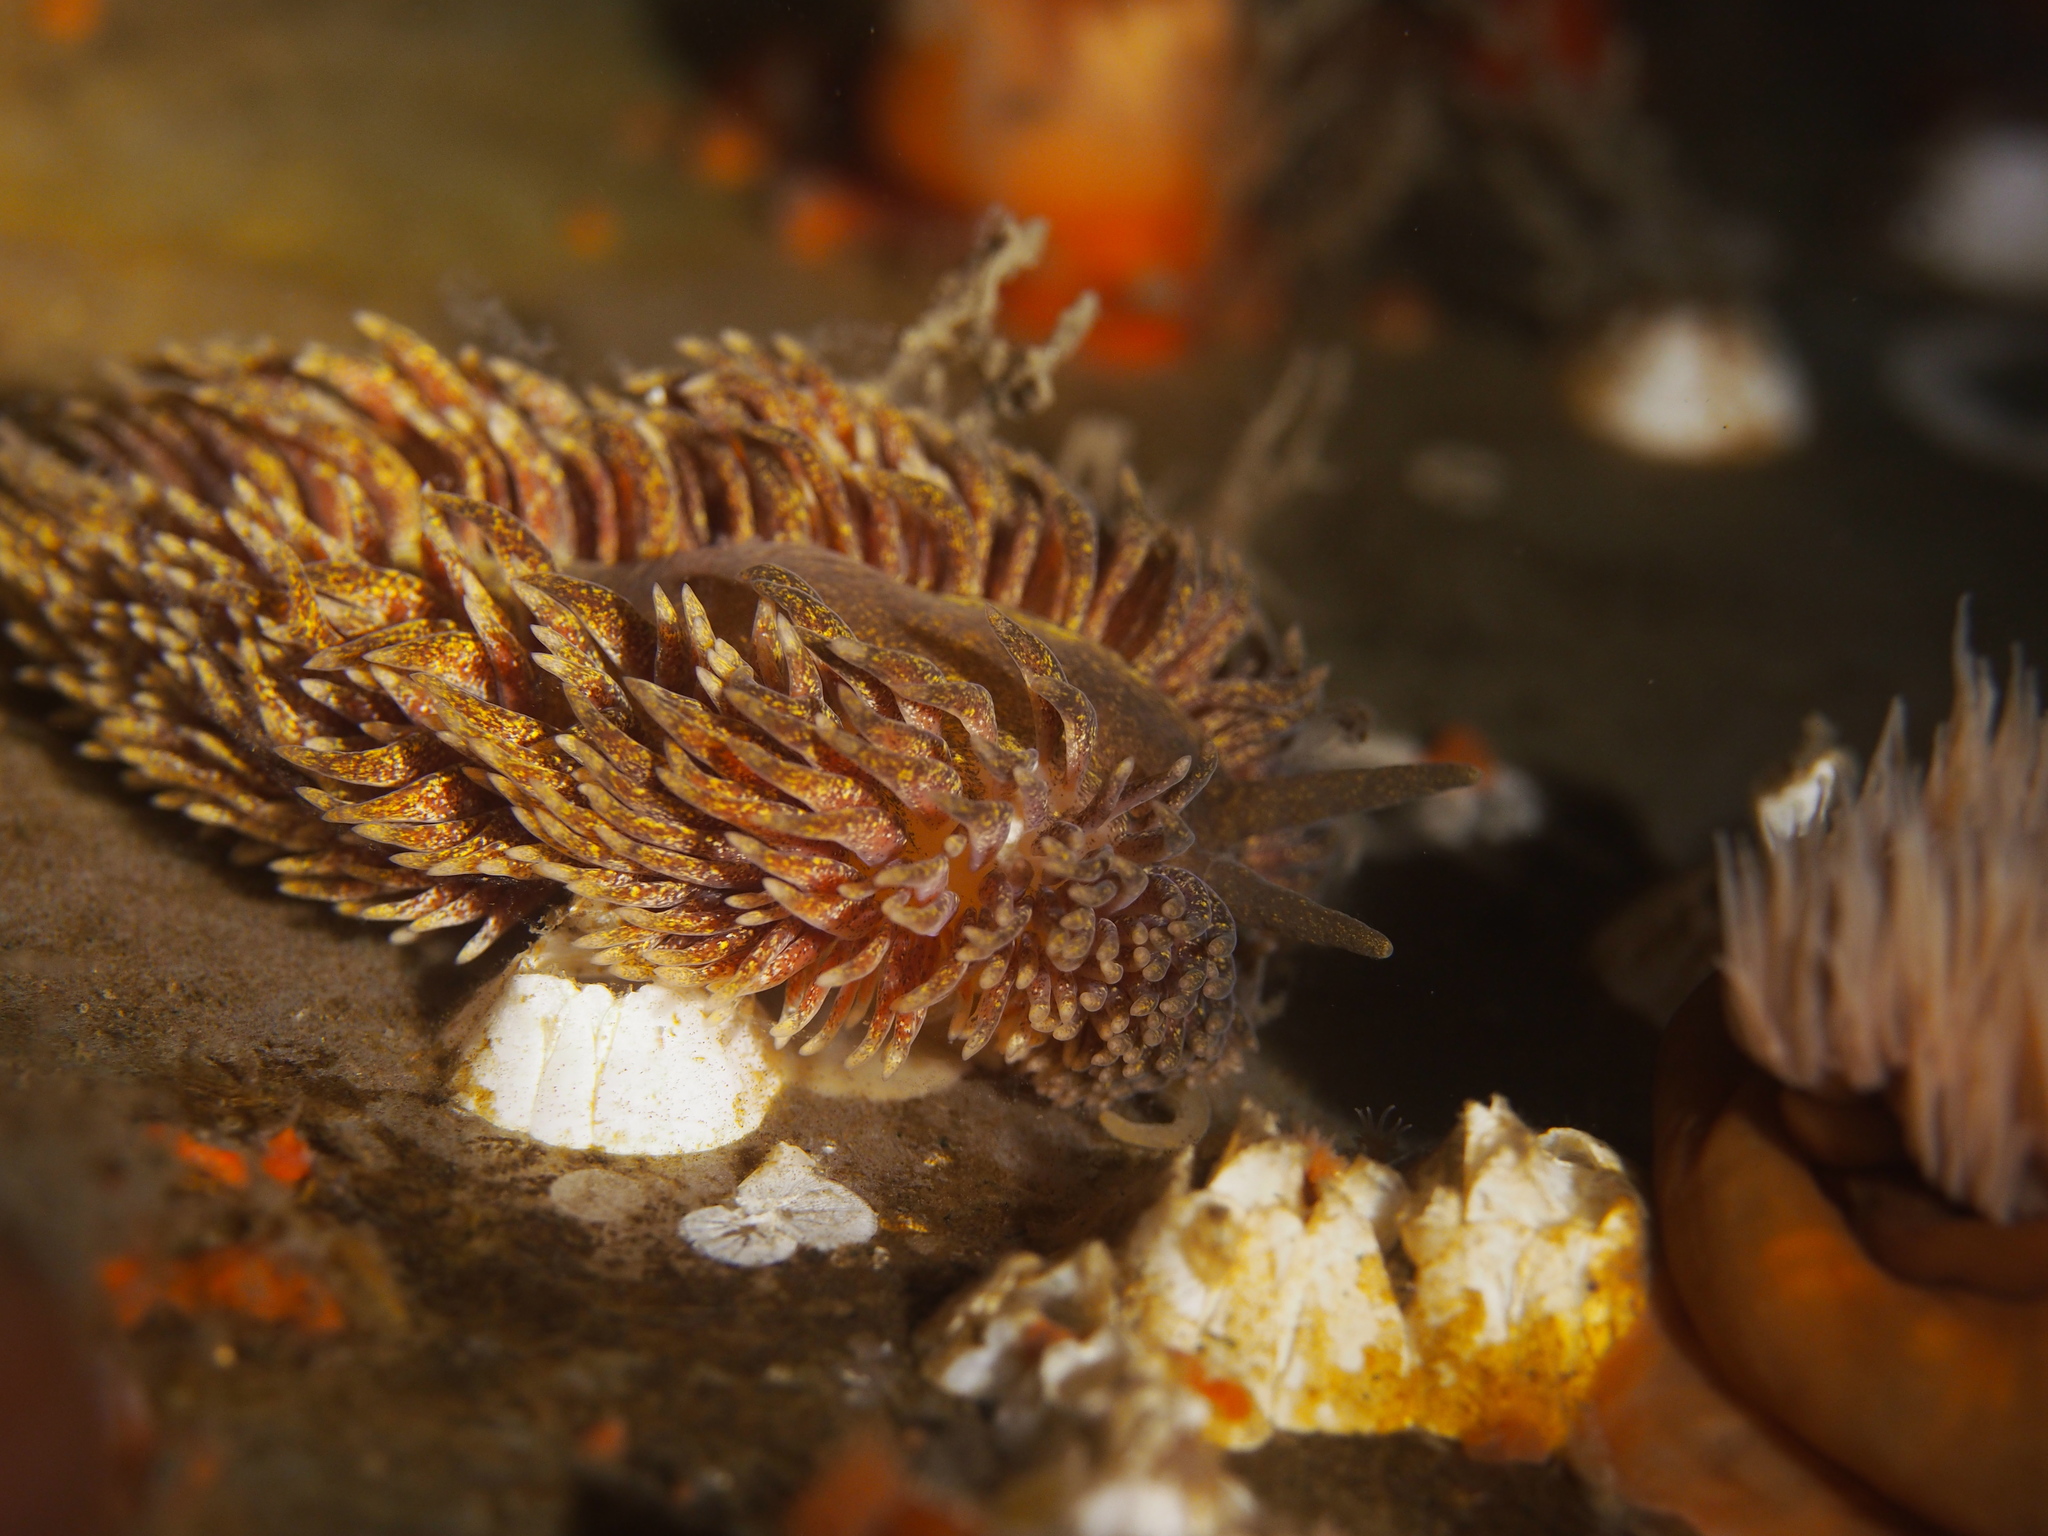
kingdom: Animalia
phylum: Mollusca
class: Gastropoda
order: Nudibranchia
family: Aeolidiidae
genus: Aeolidia
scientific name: Aeolidia papillosa
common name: Common grey sea slug
